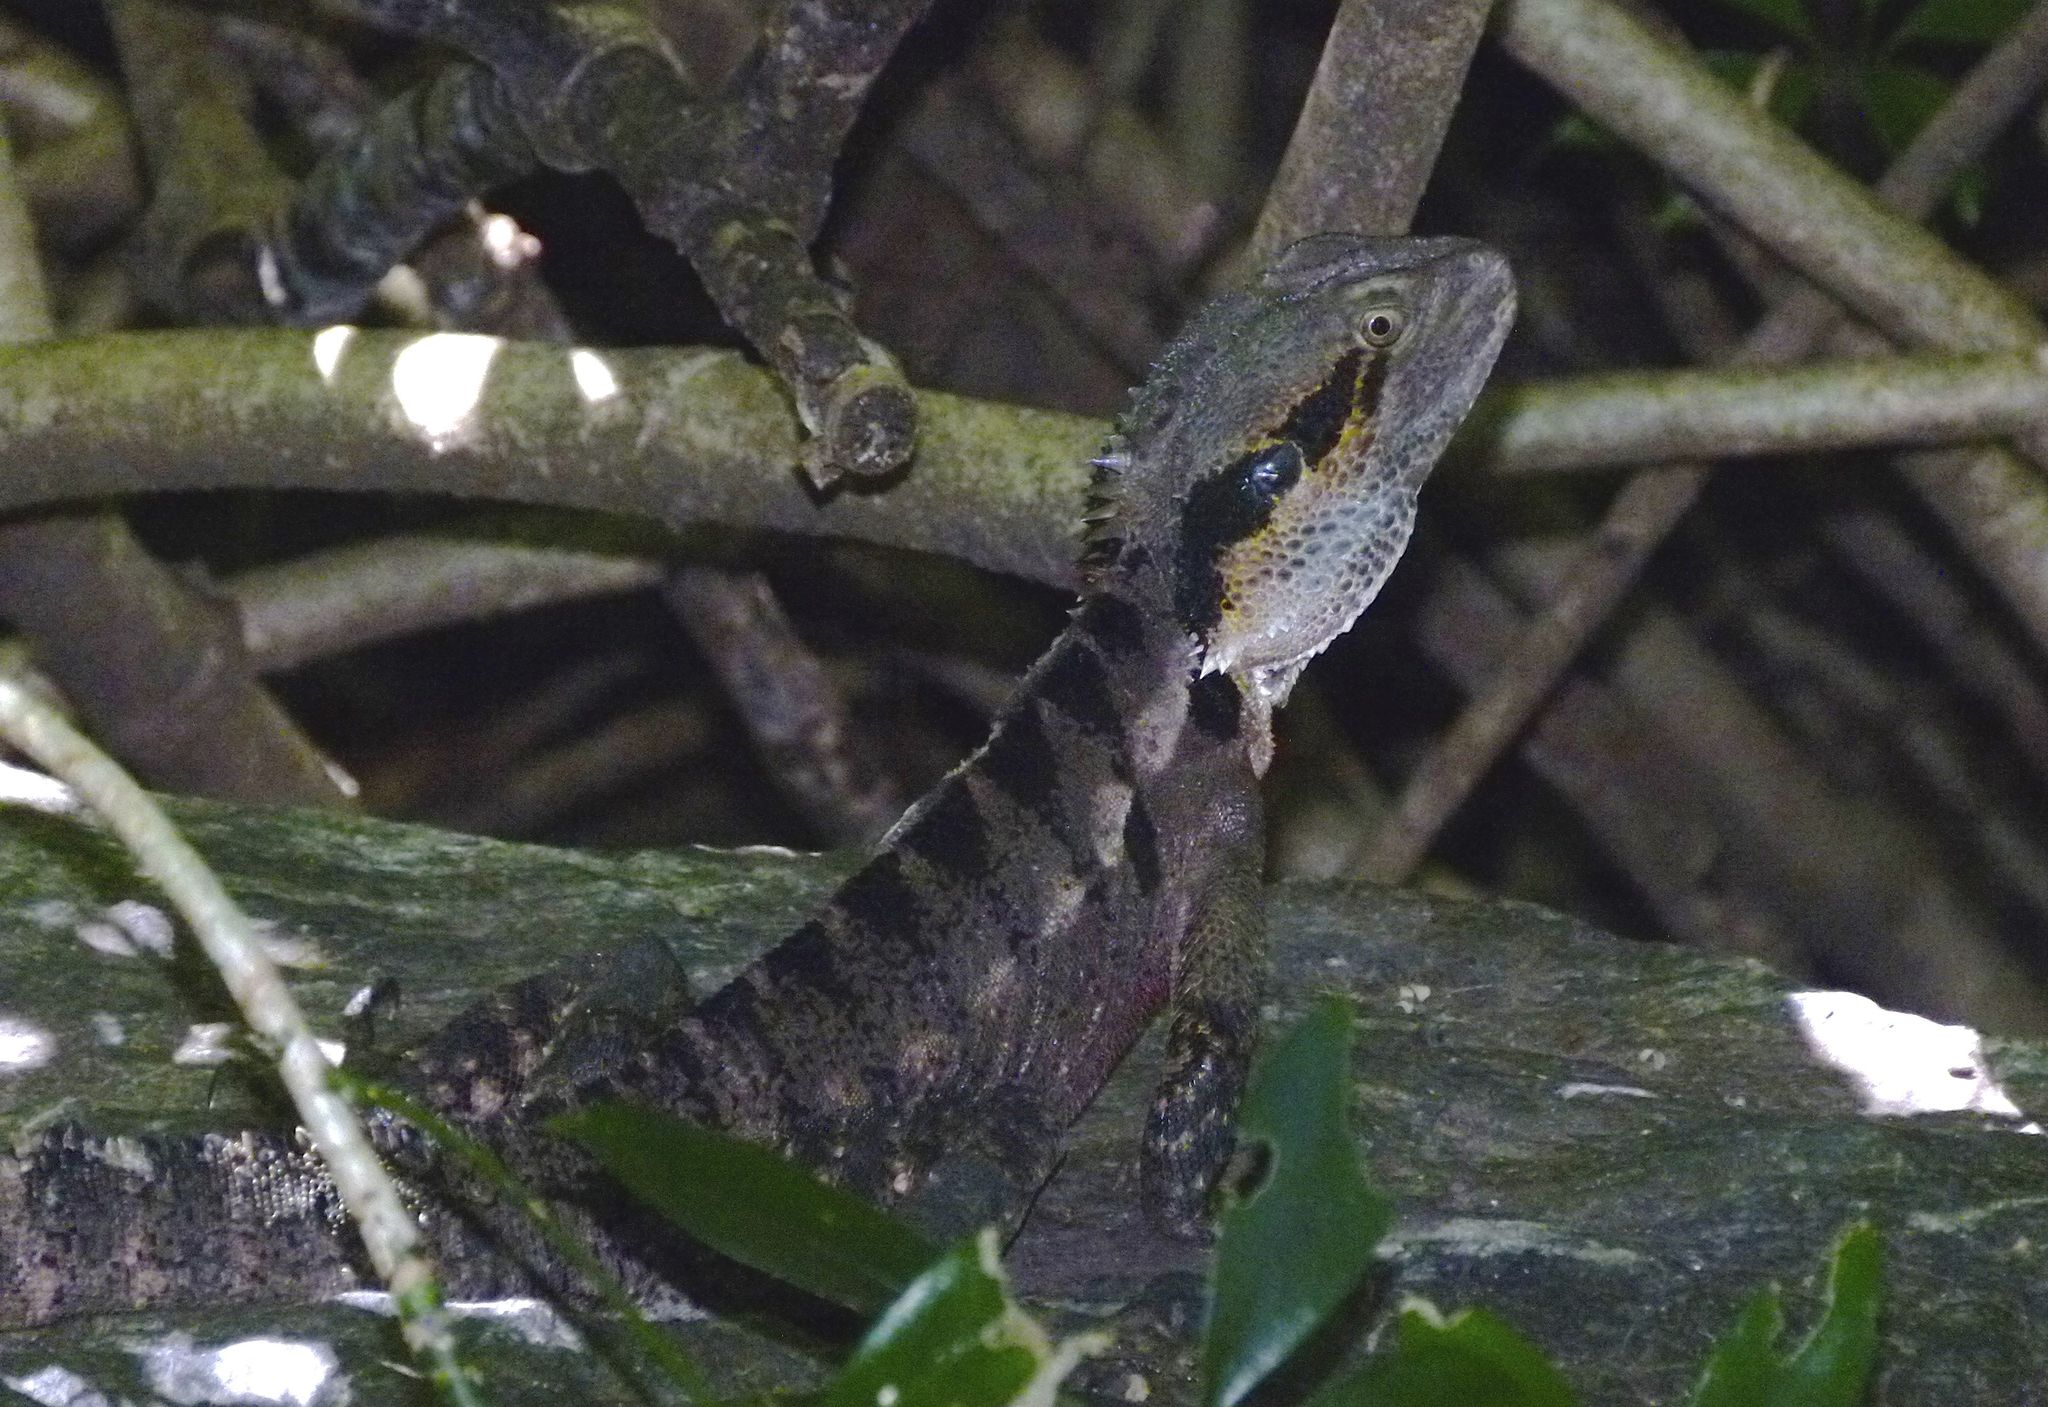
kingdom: Animalia
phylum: Chordata
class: Squamata
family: Agamidae
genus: Intellagama
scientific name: Intellagama lesueurii
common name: Eastern water dragon
